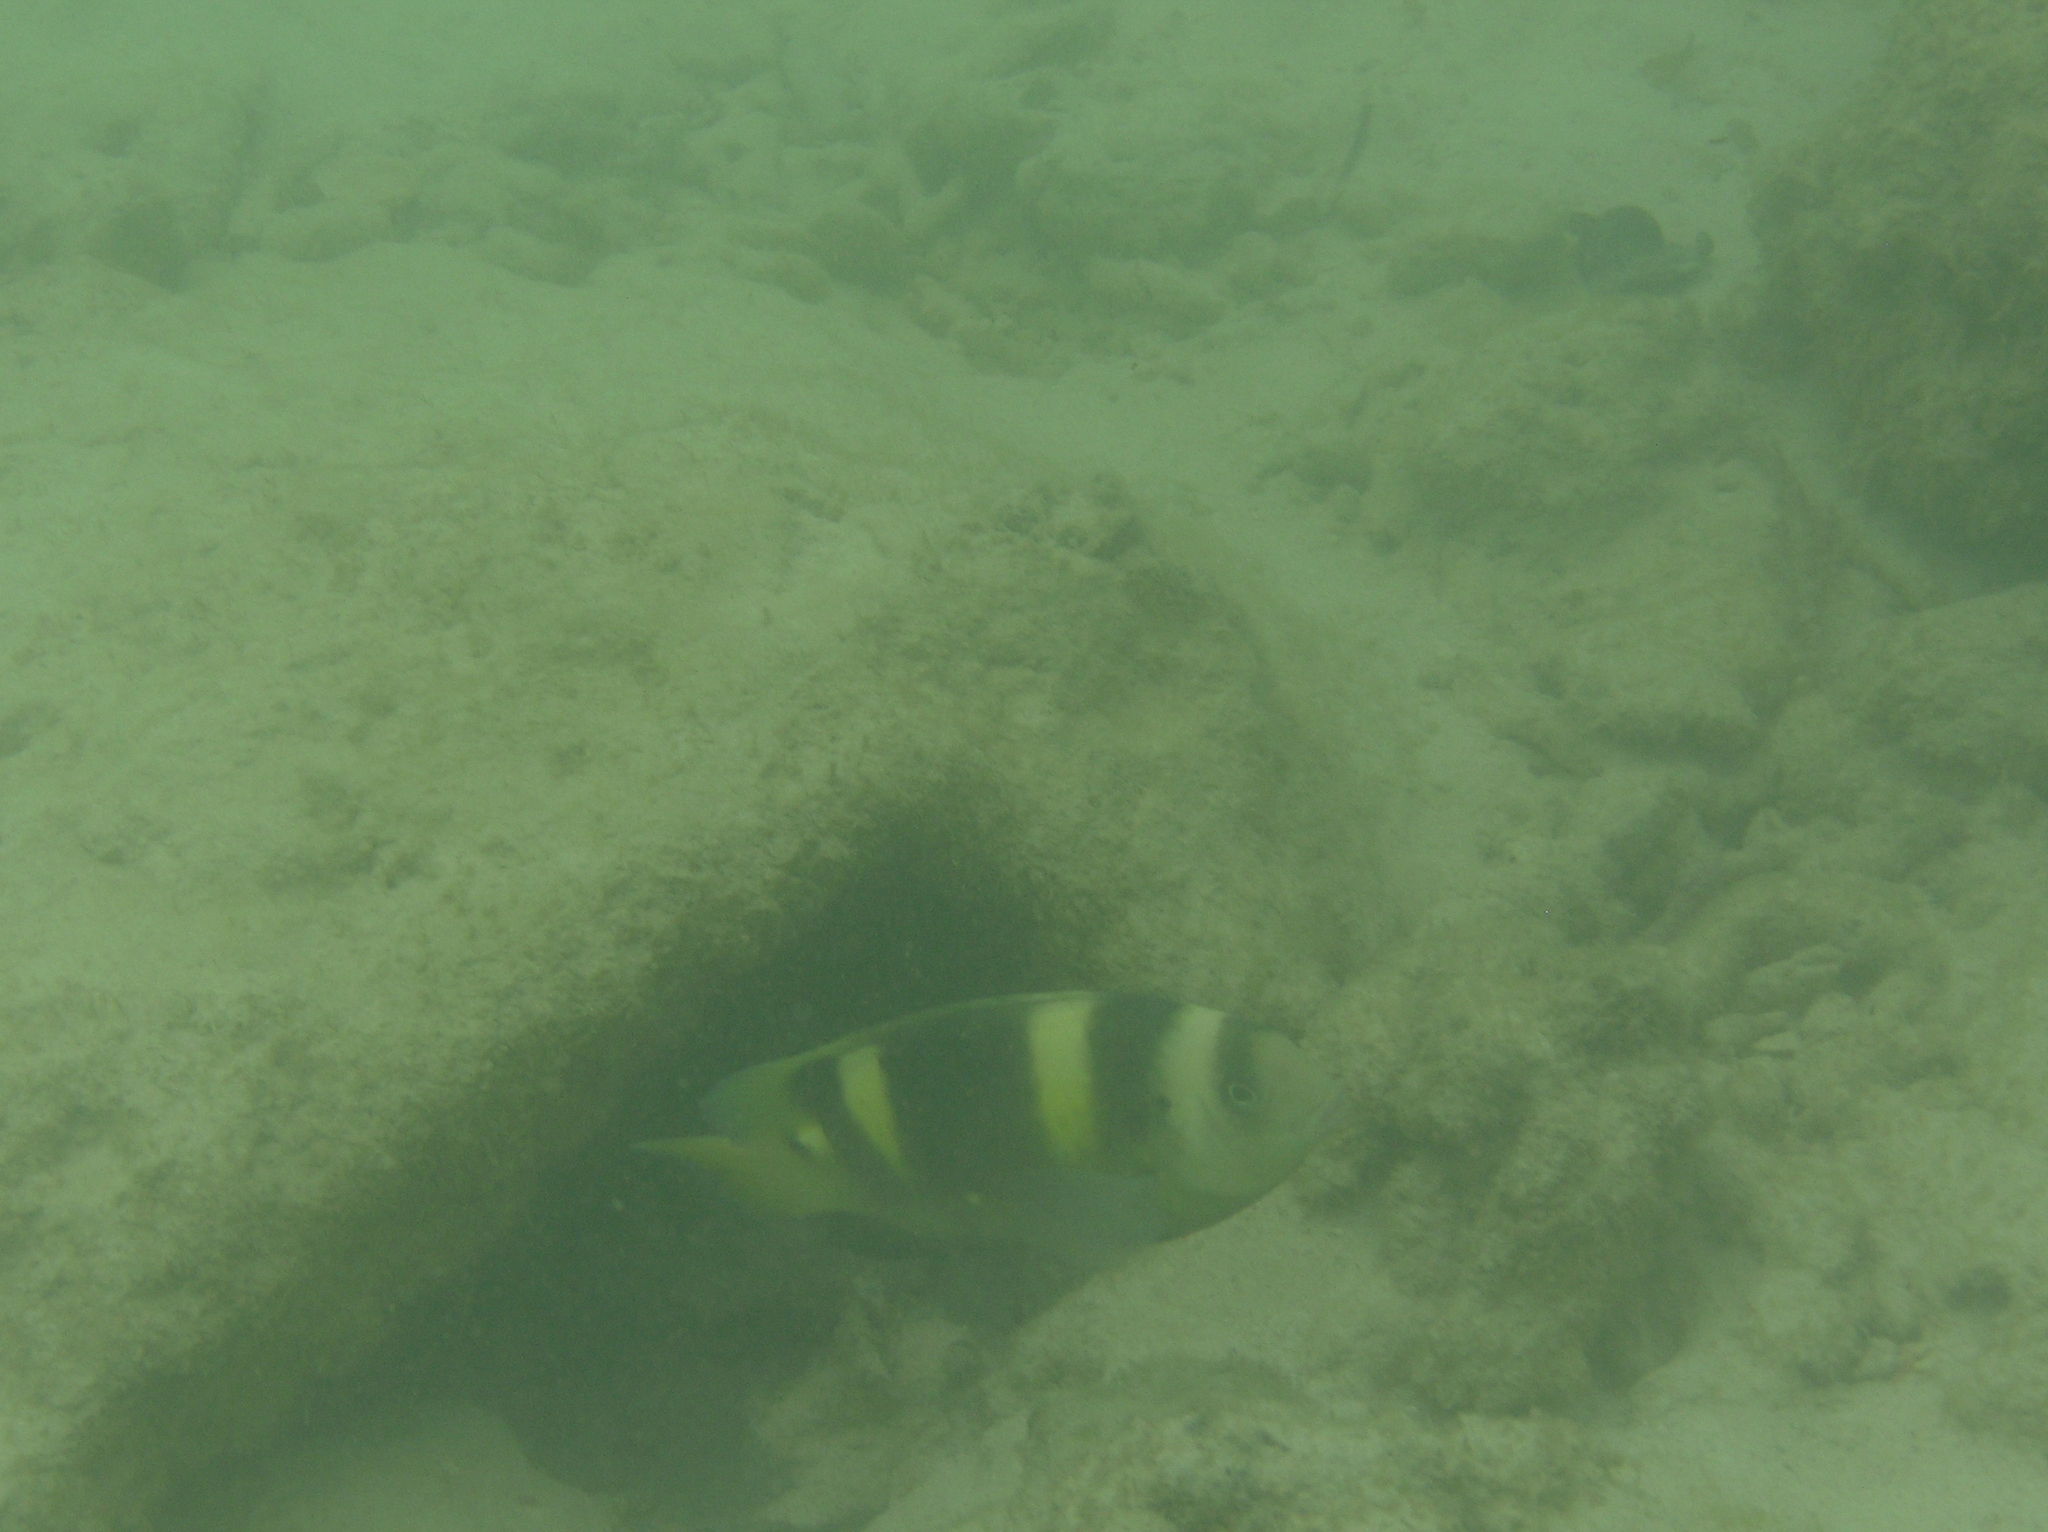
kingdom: Animalia
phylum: Chordata
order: Perciformes
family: Pomacentridae
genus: Dischistodus
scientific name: Dischistodus fasciatus
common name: Banded damsel
